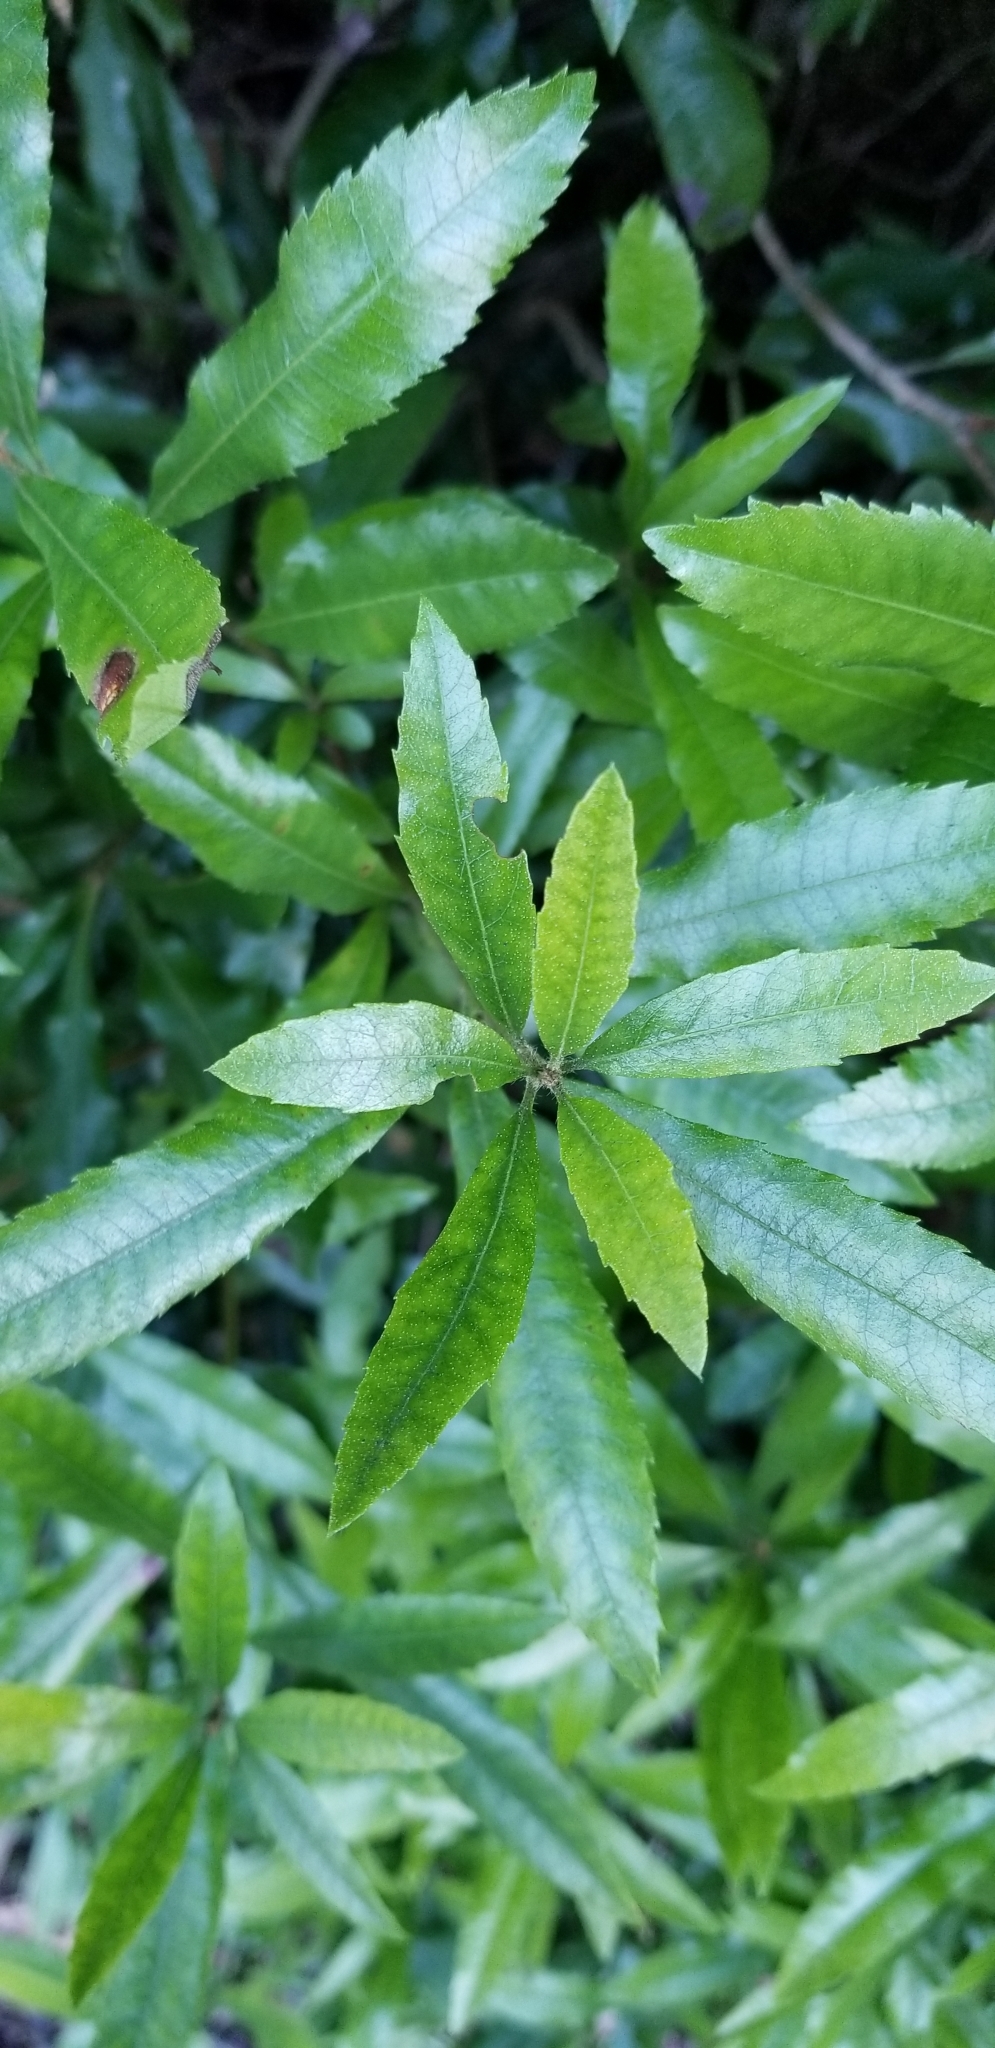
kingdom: Plantae
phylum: Tracheophyta
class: Magnoliopsida
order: Fagales
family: Myricaceae
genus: Morella
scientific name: Morella californica
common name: California wax-myrtle
